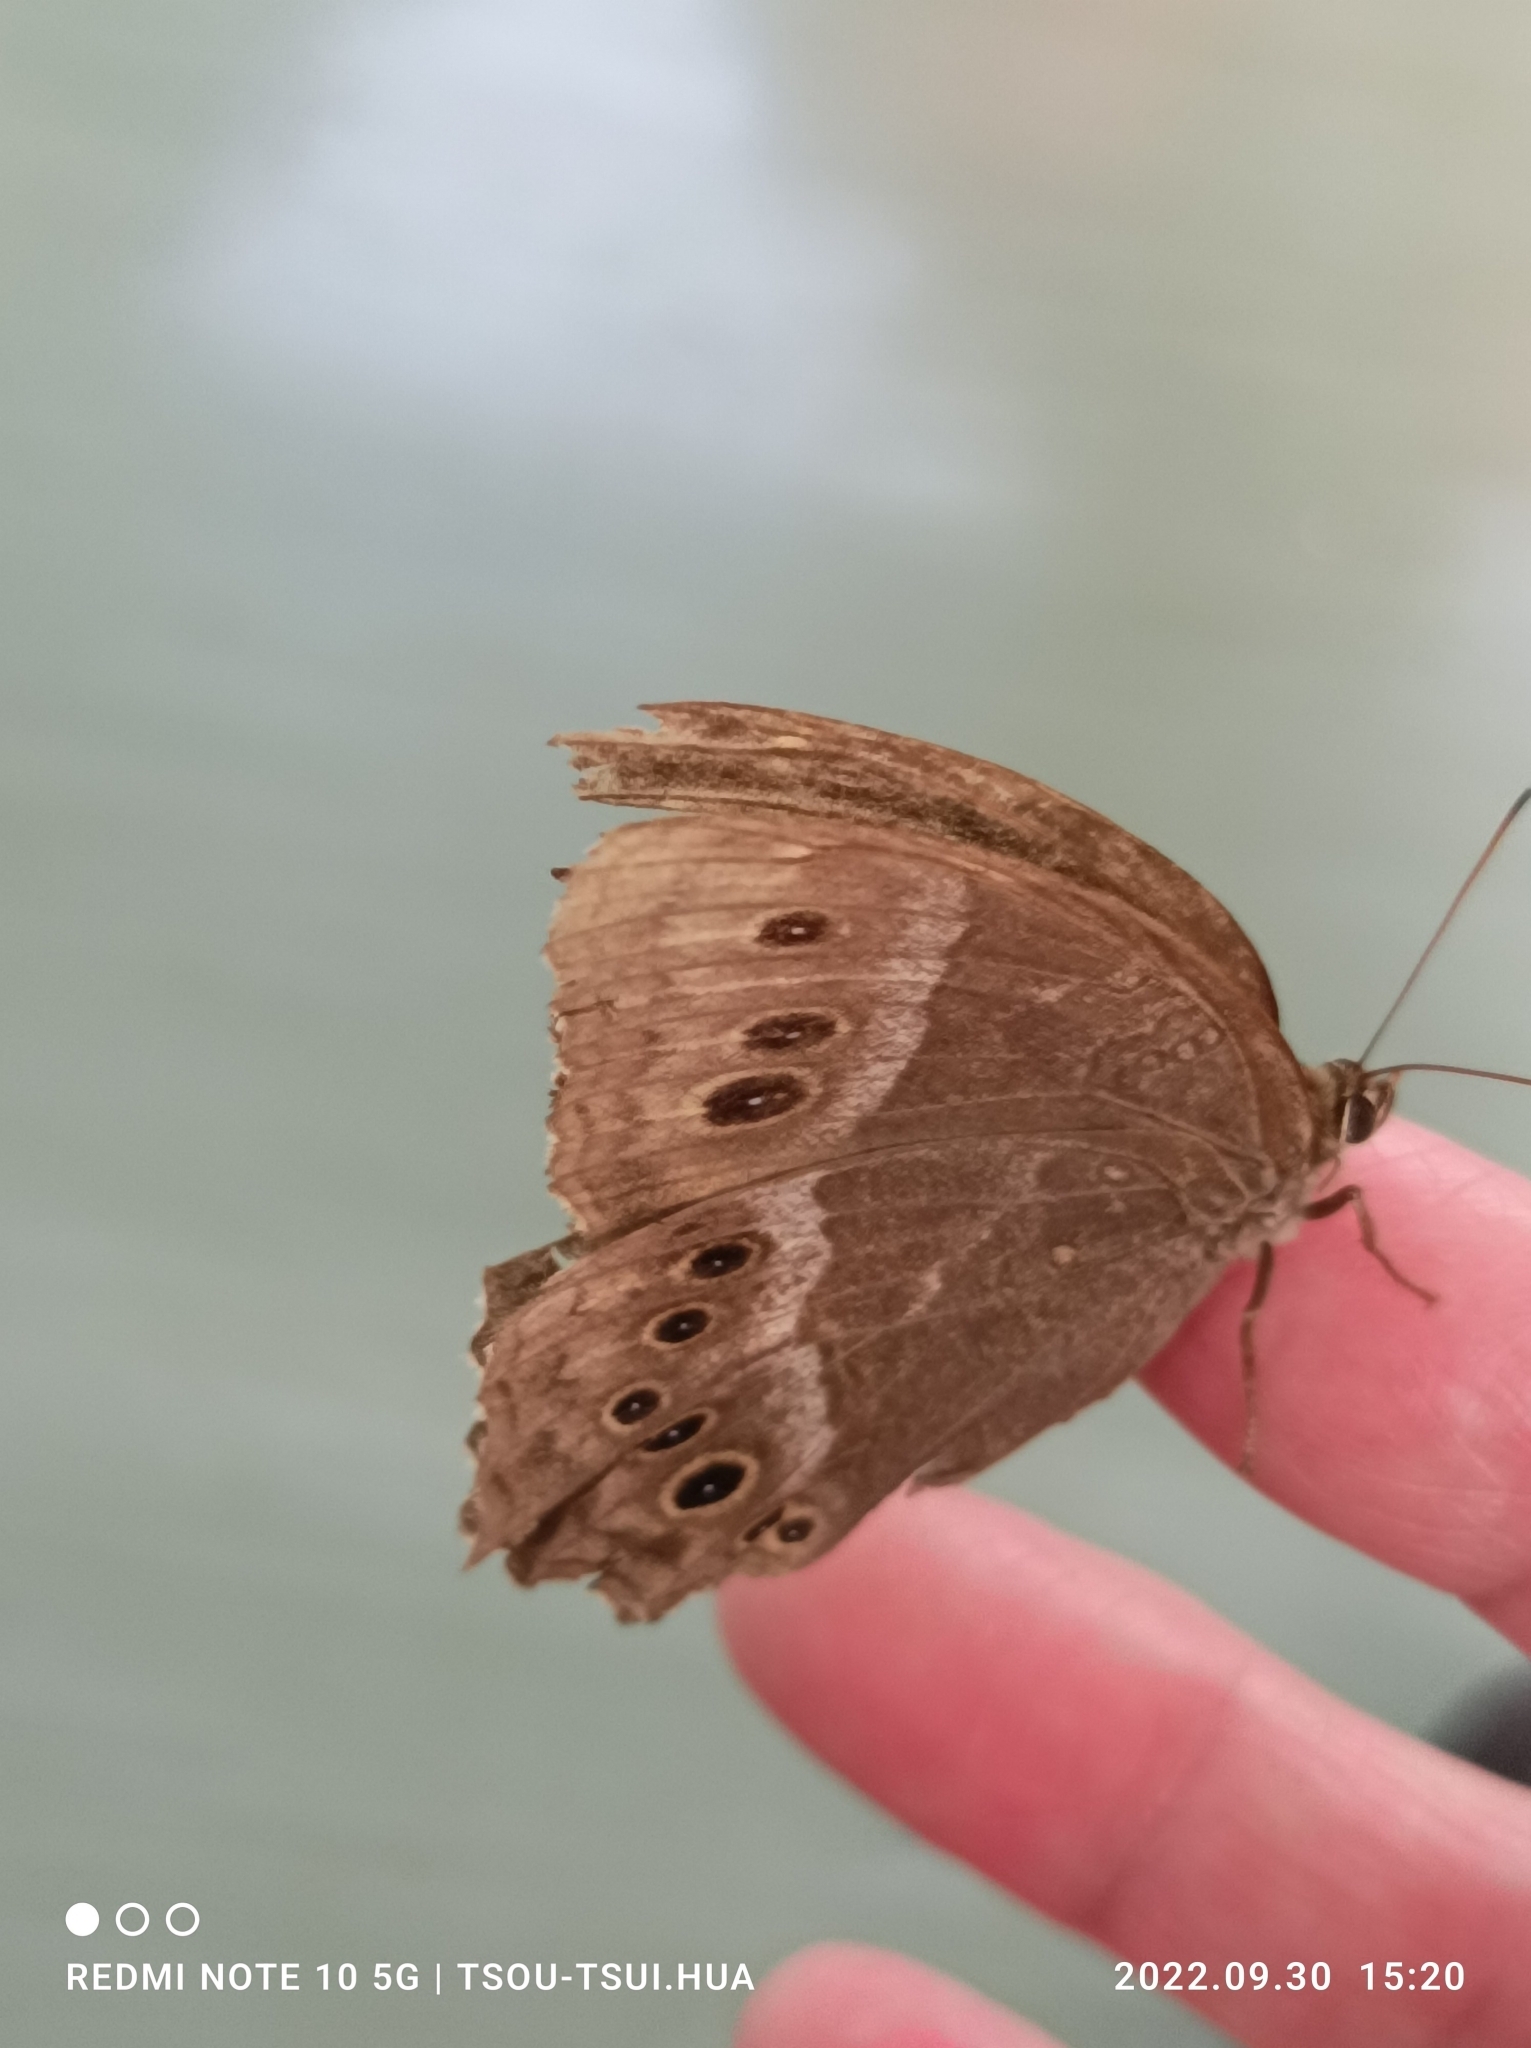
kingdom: Animalia
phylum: Arthropoda
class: Insecta
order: Lepidoptera
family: Nymphalidae
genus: Neope
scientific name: Neope muirheadii
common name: Black-spotted labyrinth
